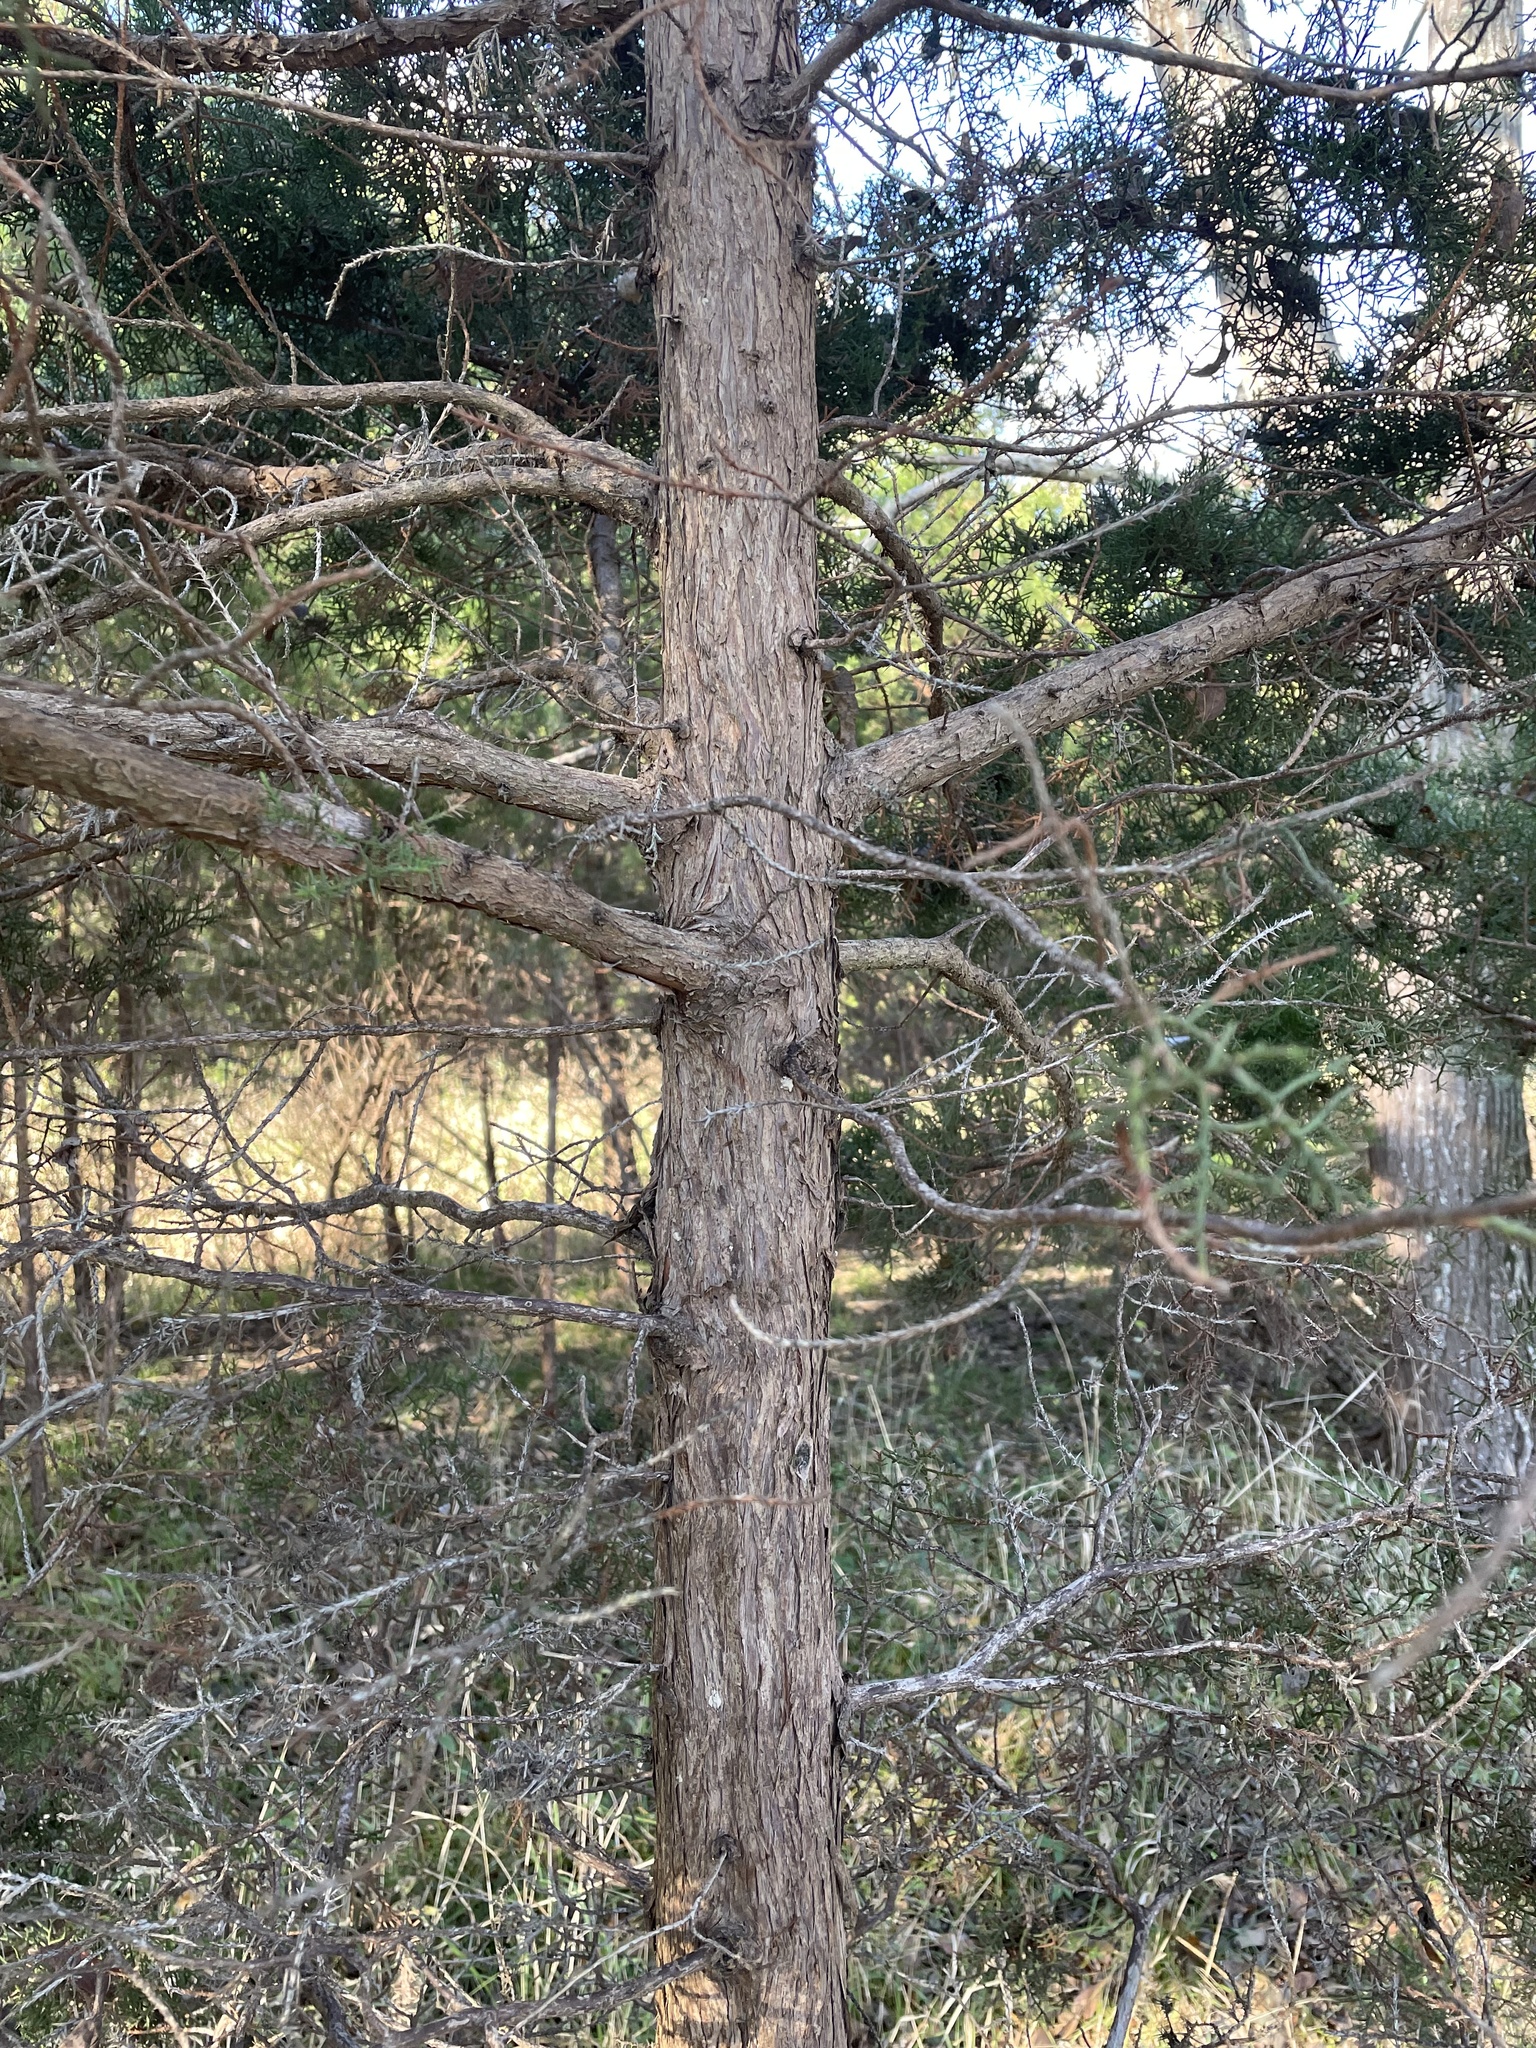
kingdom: Plantae
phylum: Tracheophyta
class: Pinopsida
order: Pinales
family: Cupressaceae
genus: Juniperus
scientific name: Juniperus ashei
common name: Mexican juniper
